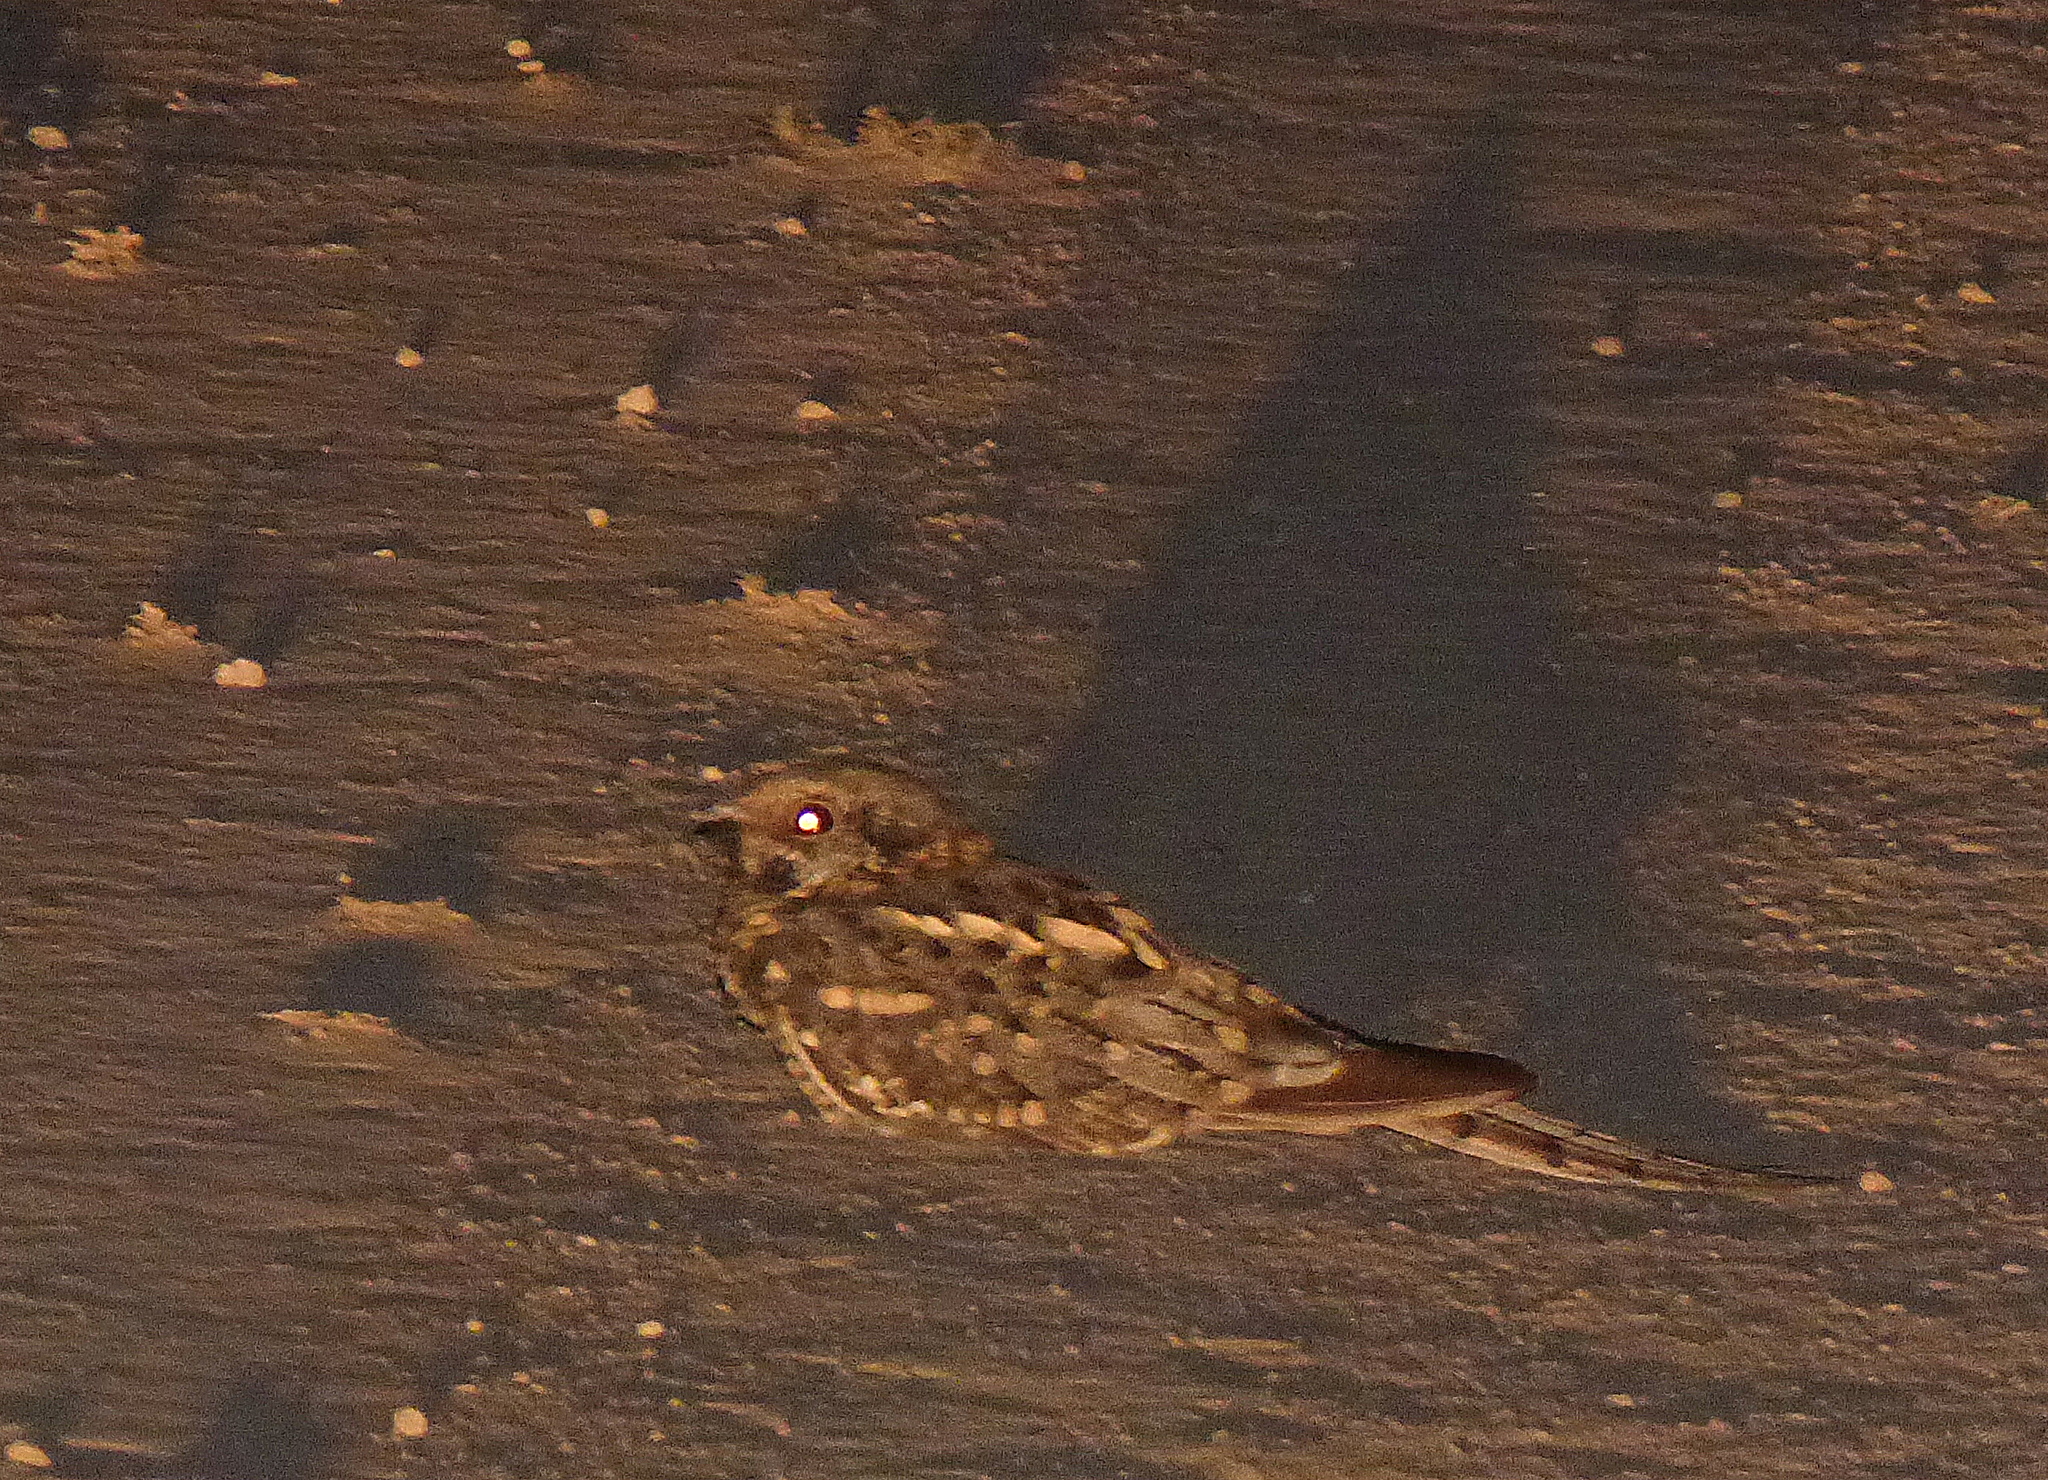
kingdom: Animalia
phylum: Chordata
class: Aves
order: Caprimulgiformes
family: Caprimulgidae
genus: Hydropsalis
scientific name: Hydropsalis torquata
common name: Scissor-tailed nightjar
